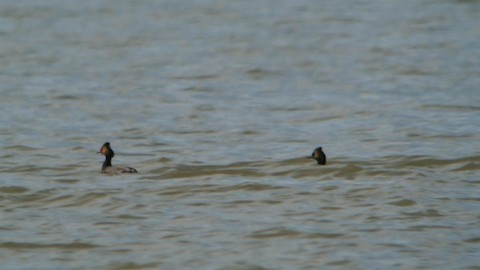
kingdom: Animalia
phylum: Chordata
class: Aves
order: Podicipediformes
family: Podicipedidae
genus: Podiceps
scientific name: Podiceps nigricollis
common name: Black-necked grebe
